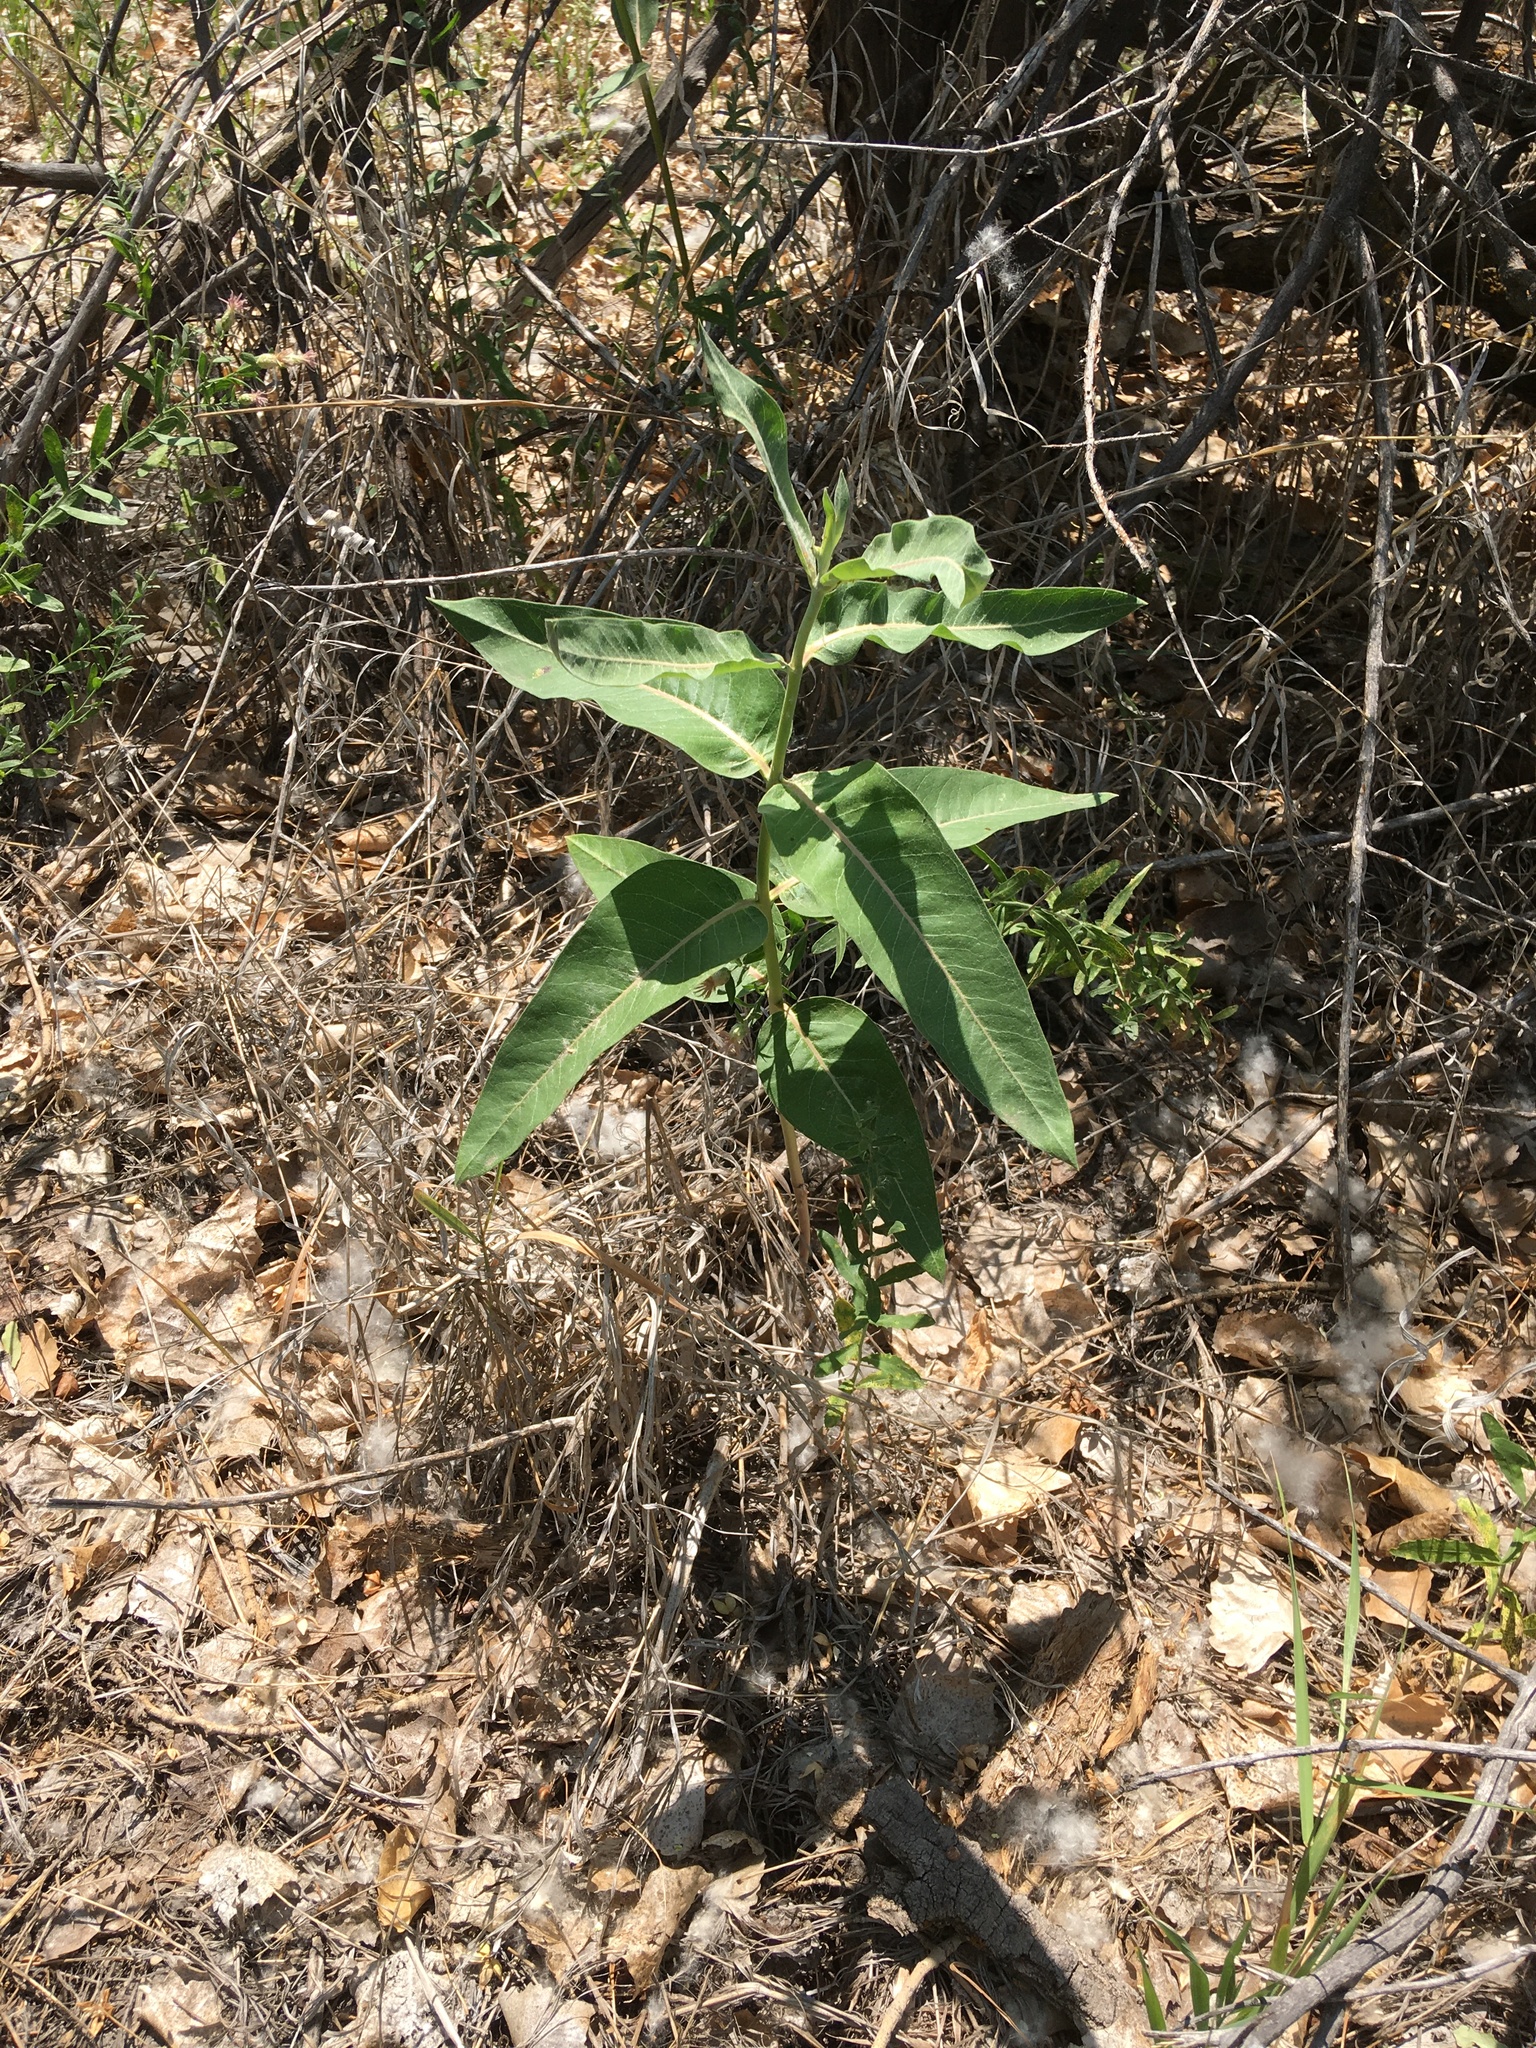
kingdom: Plantae
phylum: Tracheophyta
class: Magnoliopsida
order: Gentianales
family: Apocynaceae
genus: Asclepias
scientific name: Asclepias speciosa
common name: Showy milkweed
